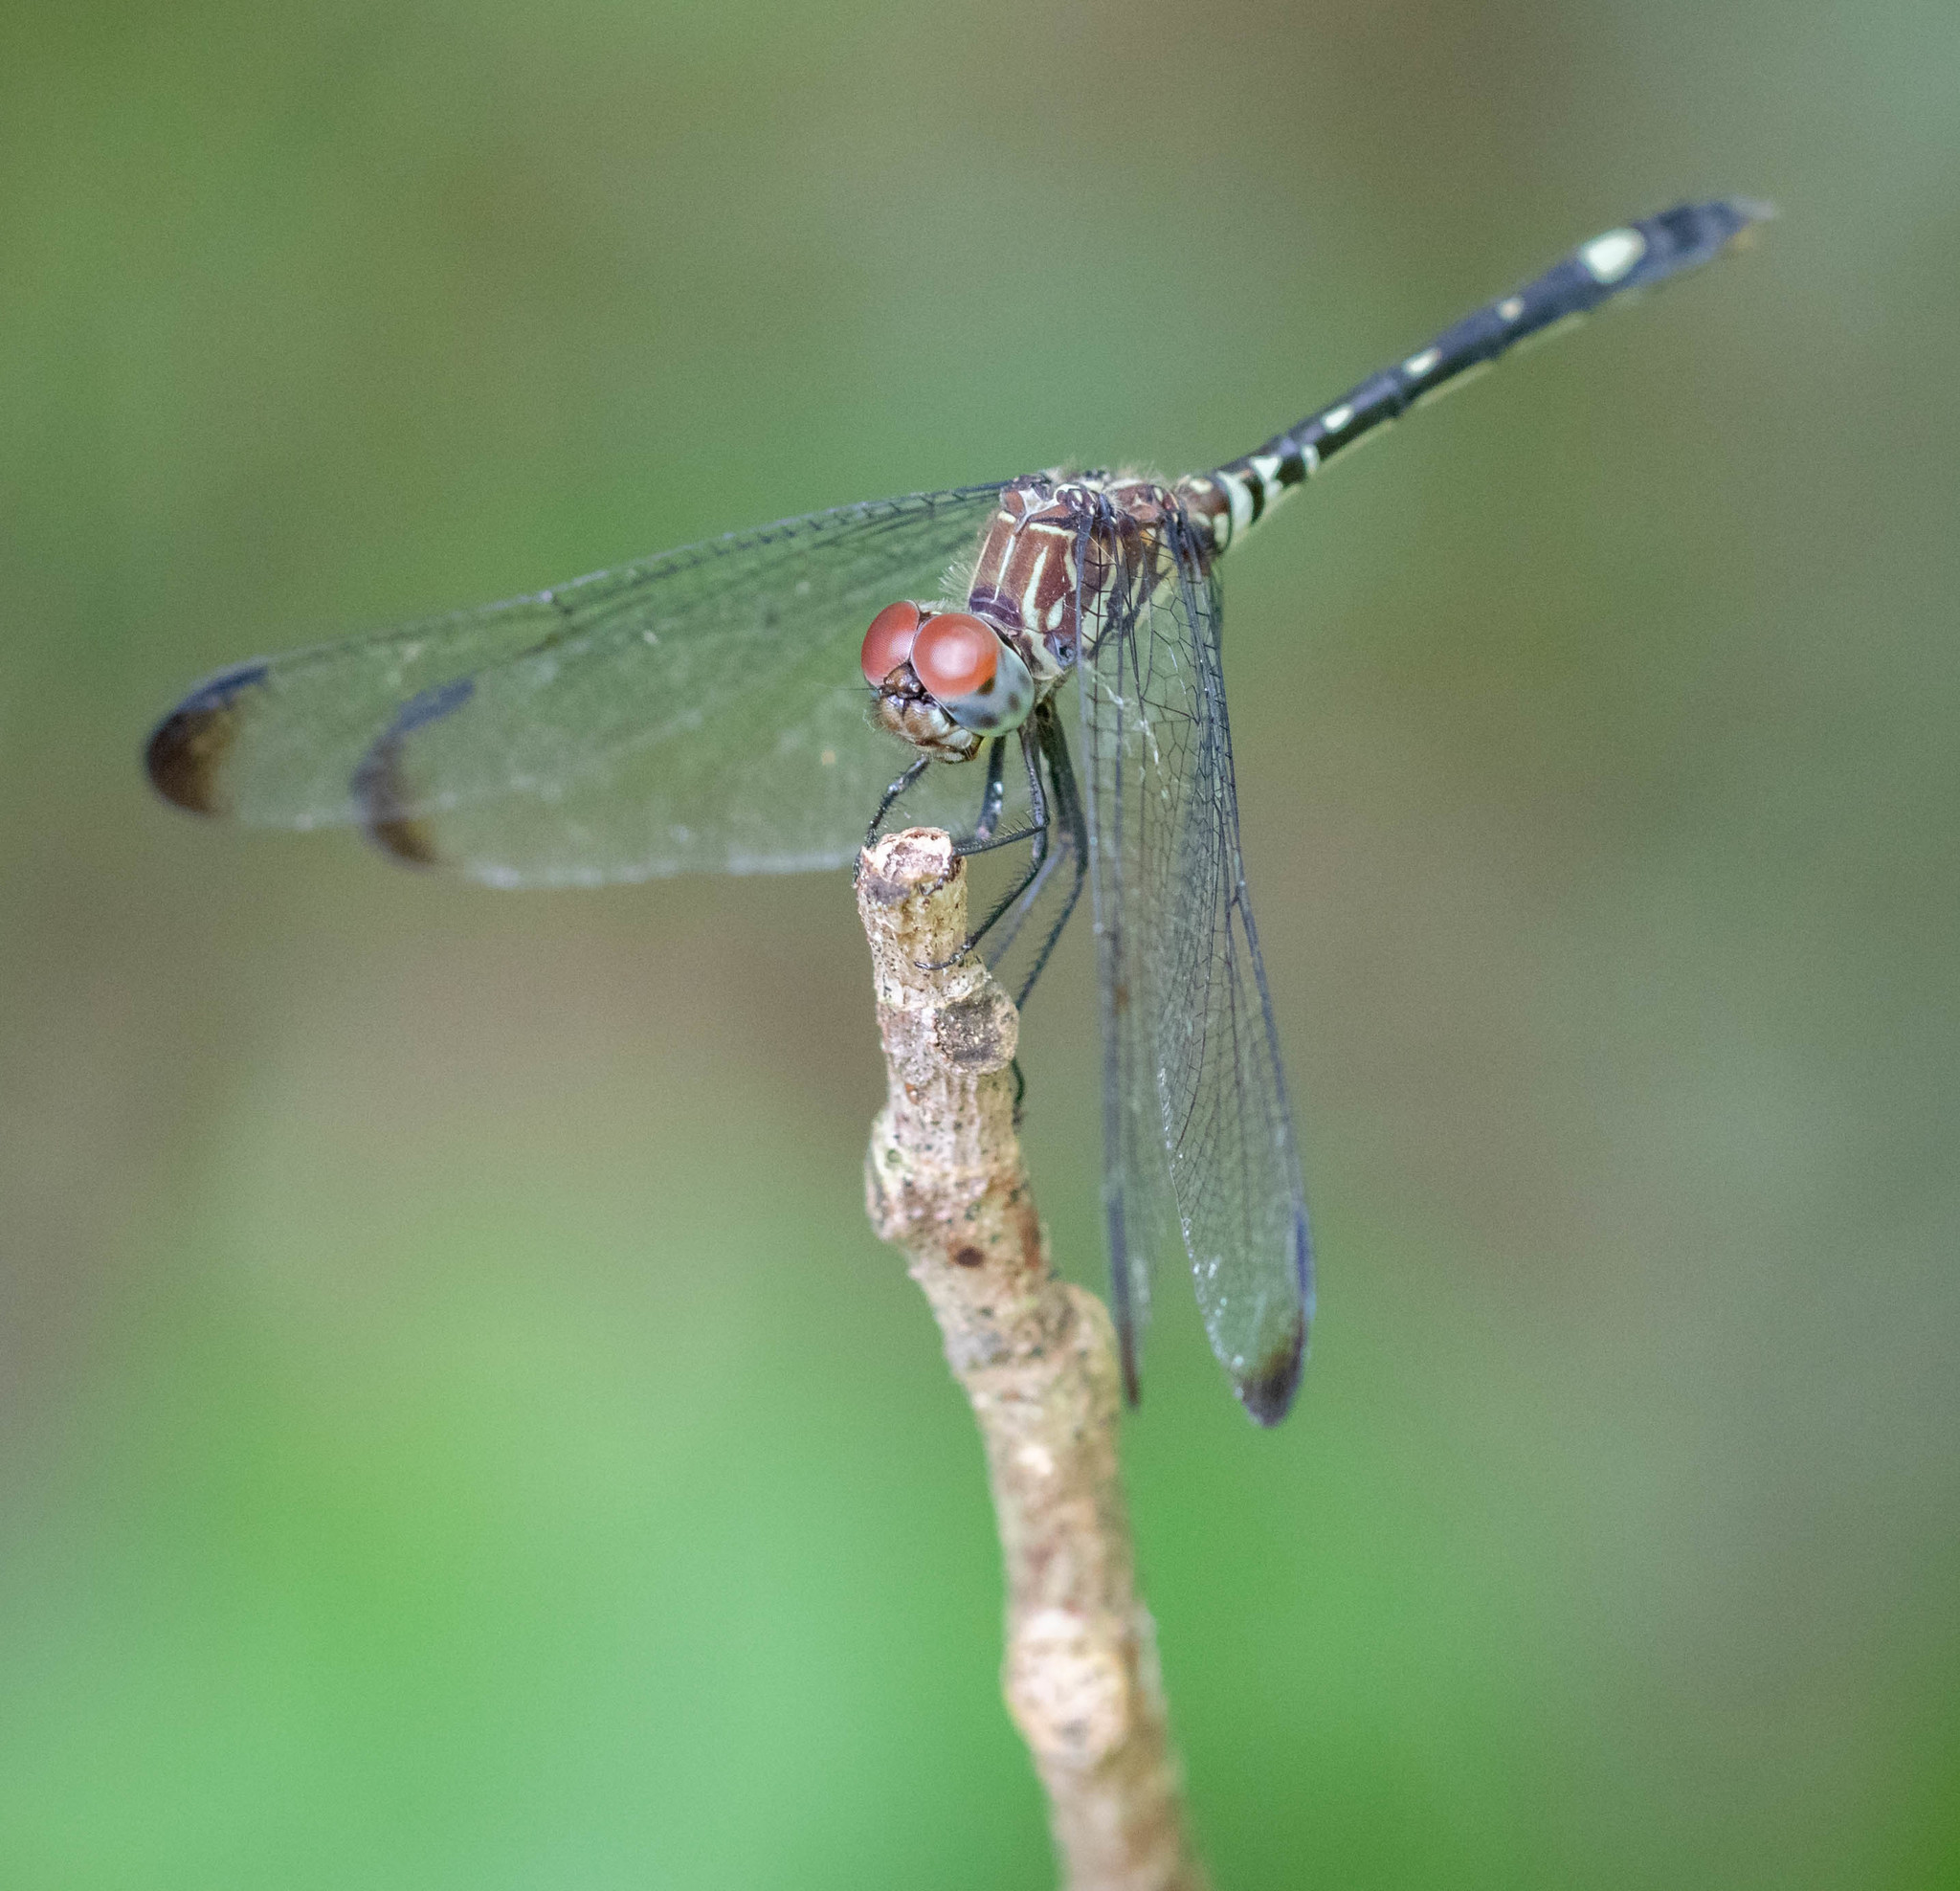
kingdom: Animalia
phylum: Arthropoda
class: Insecta
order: Odonata
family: Libellulidae
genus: Dythemis
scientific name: Dythemis velox
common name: Swift setwing
